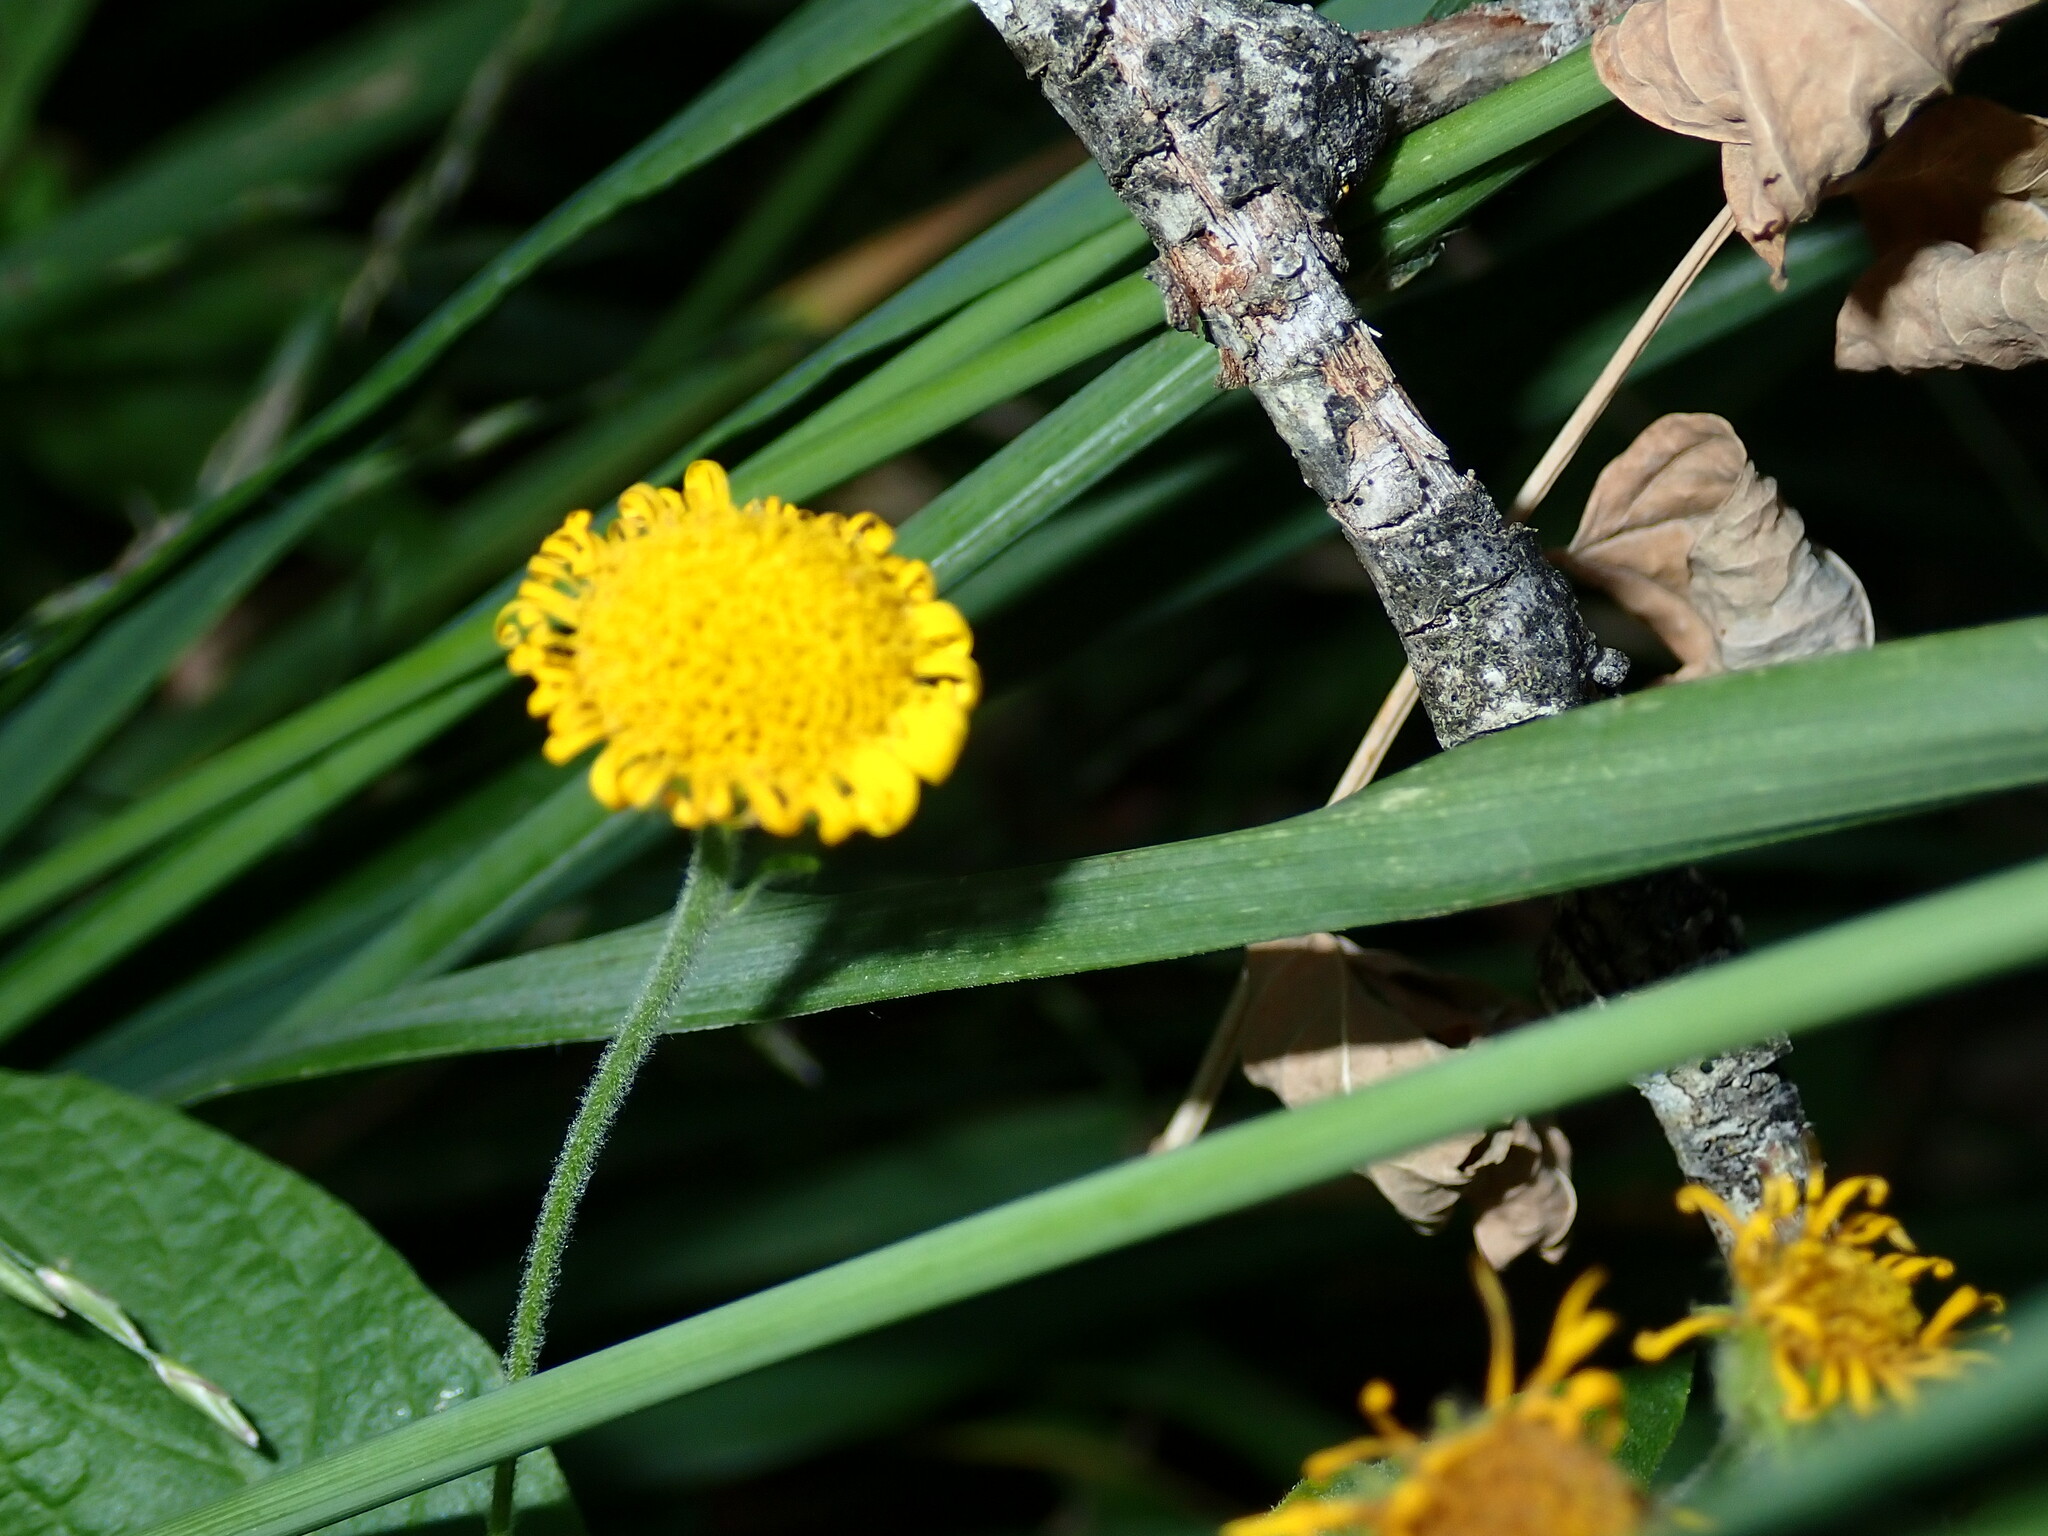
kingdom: Plantae
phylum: Tracheophyta
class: Magnoliopsida
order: Asterales
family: Asteraceae
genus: Pulicaria
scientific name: Pulicaria dysenterica
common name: Common fleabane
